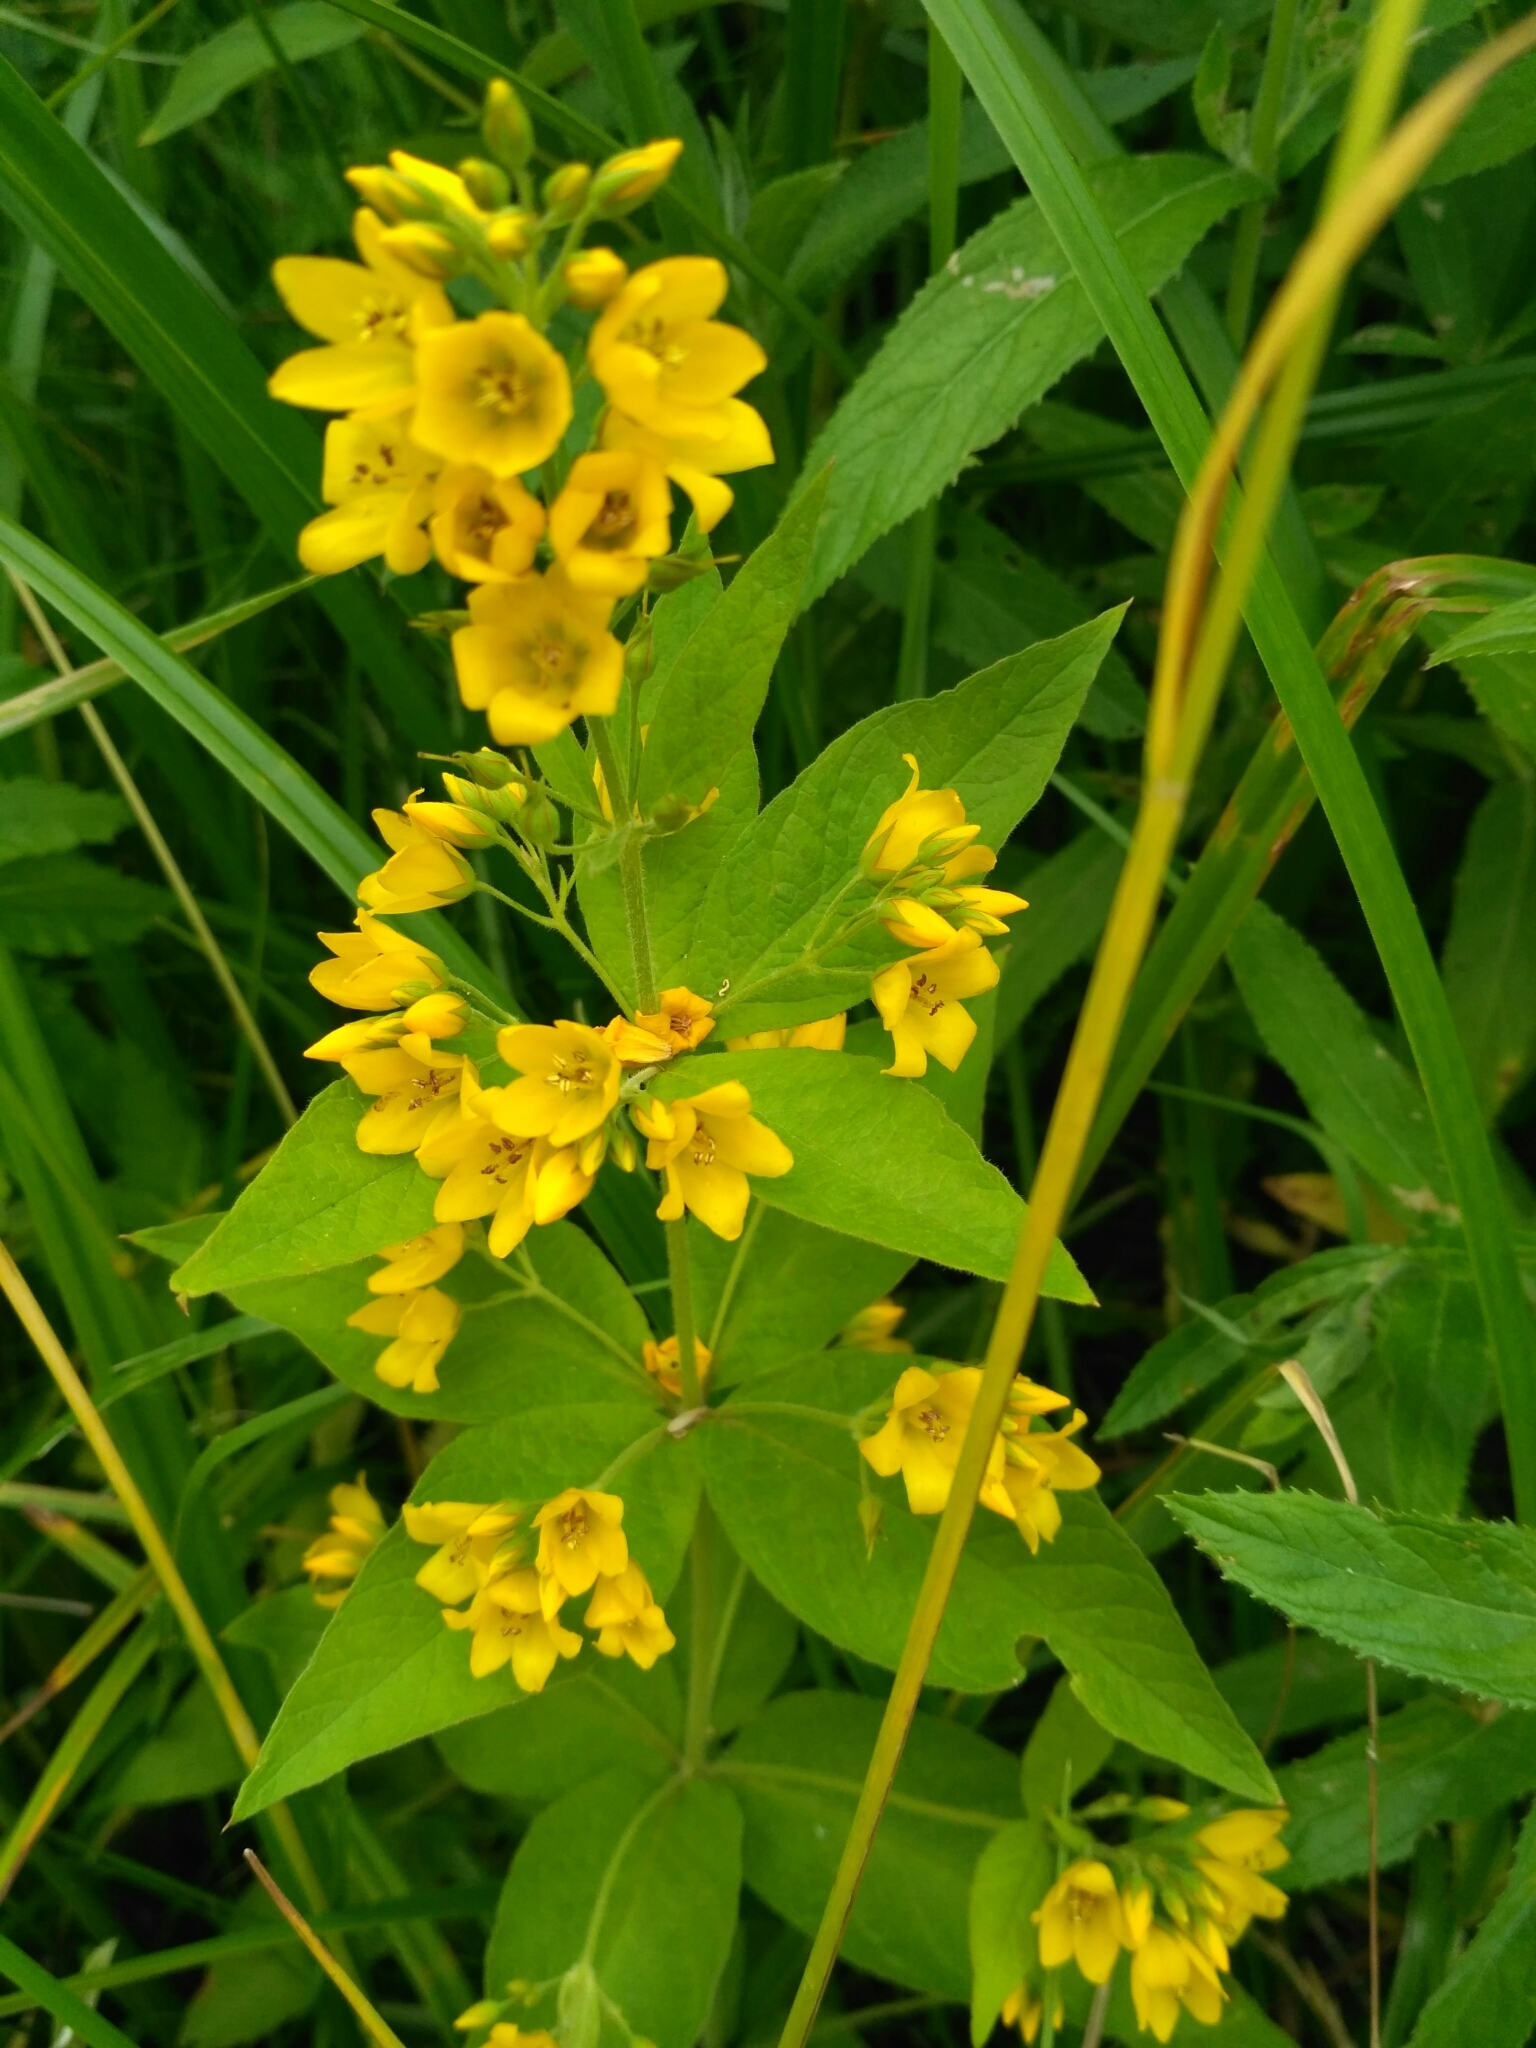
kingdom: Plantae
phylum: Tracheophyta
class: Magnoliopsida
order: Ericales
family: Primulaceae
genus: Lysimachia
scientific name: Lysimachia vulgaris
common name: Yellow loosestrife
